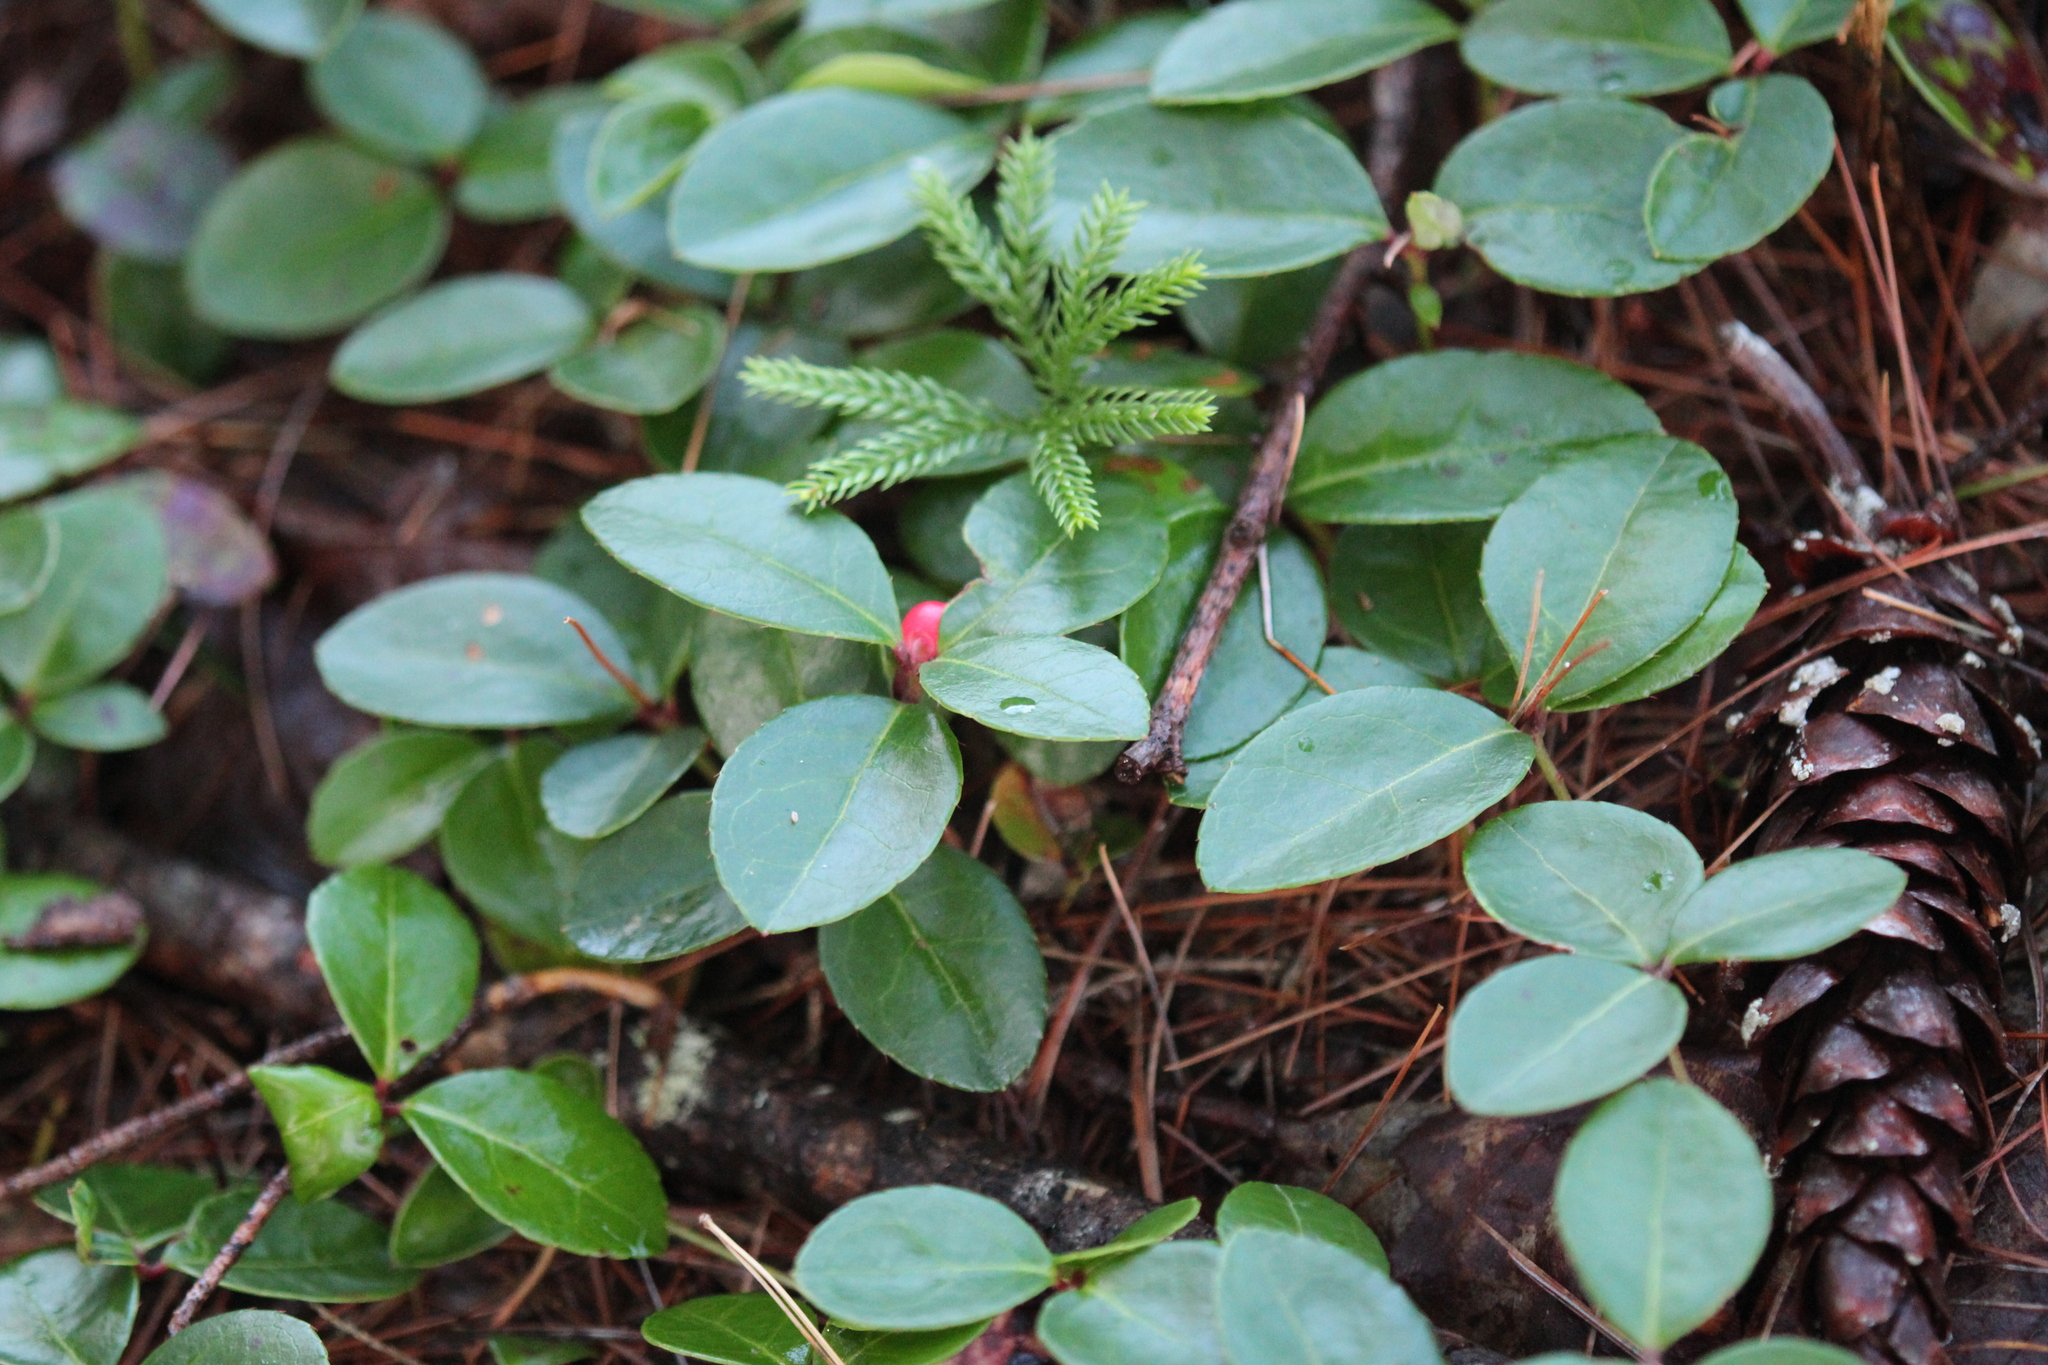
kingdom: Plantae
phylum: Tracheophyta
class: Magnoliopsida
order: Ericales
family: Ericaceae
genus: Gaultheria
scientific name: Gaultheria procumbens
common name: Checkerberry
